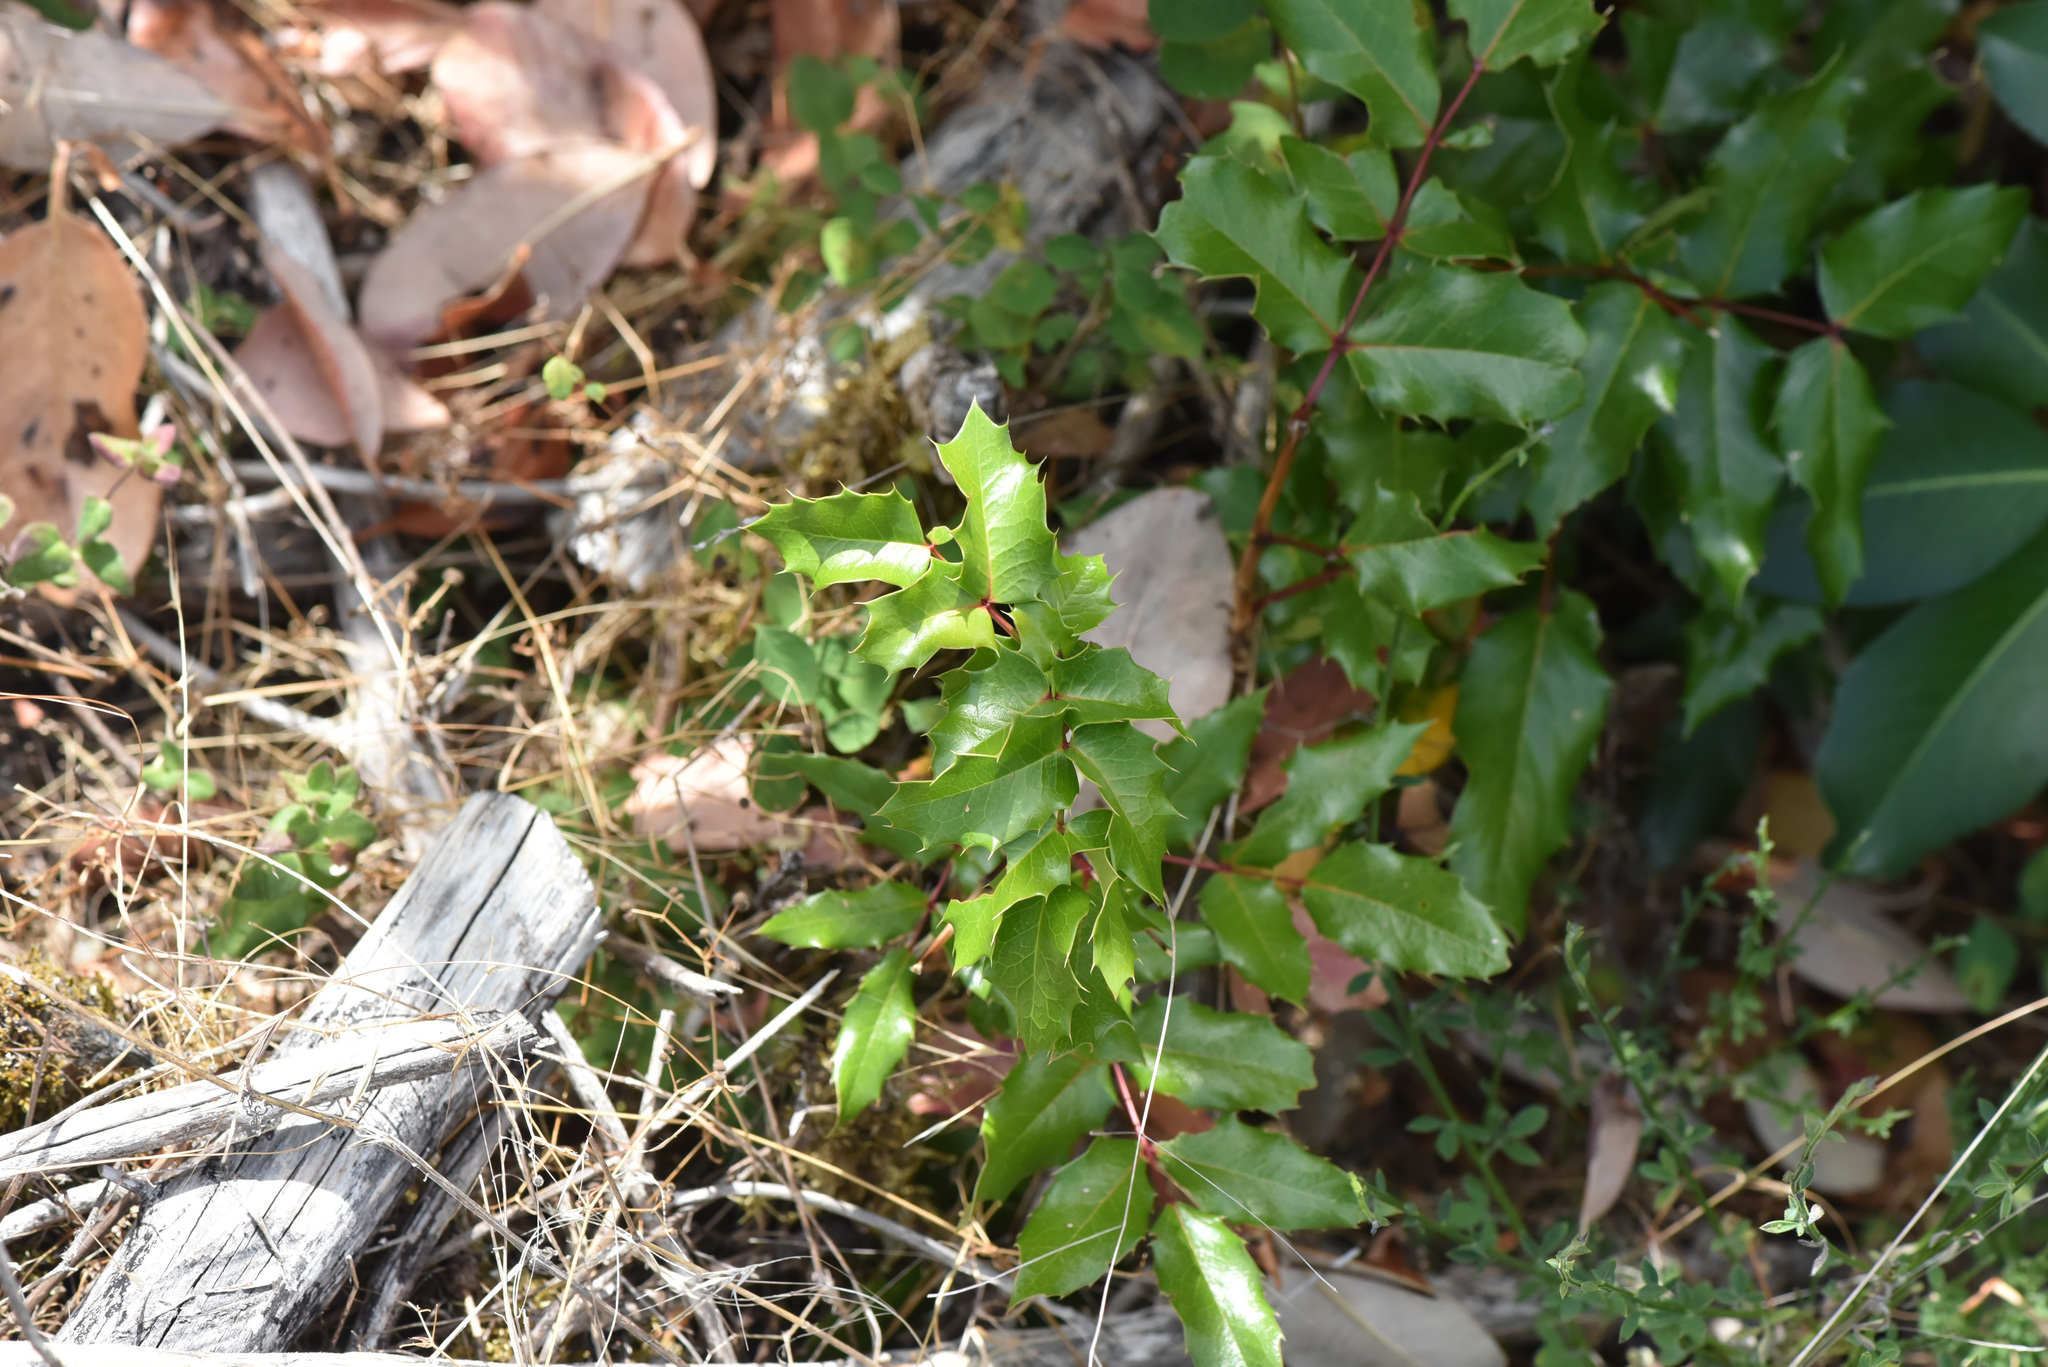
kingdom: Plantae
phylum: Tracheophyta
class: Magnoliopsida
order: Ranunculales
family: Berberidaceae
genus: Mahonia
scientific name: Mahonia aquifolium
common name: Oregon-grape
